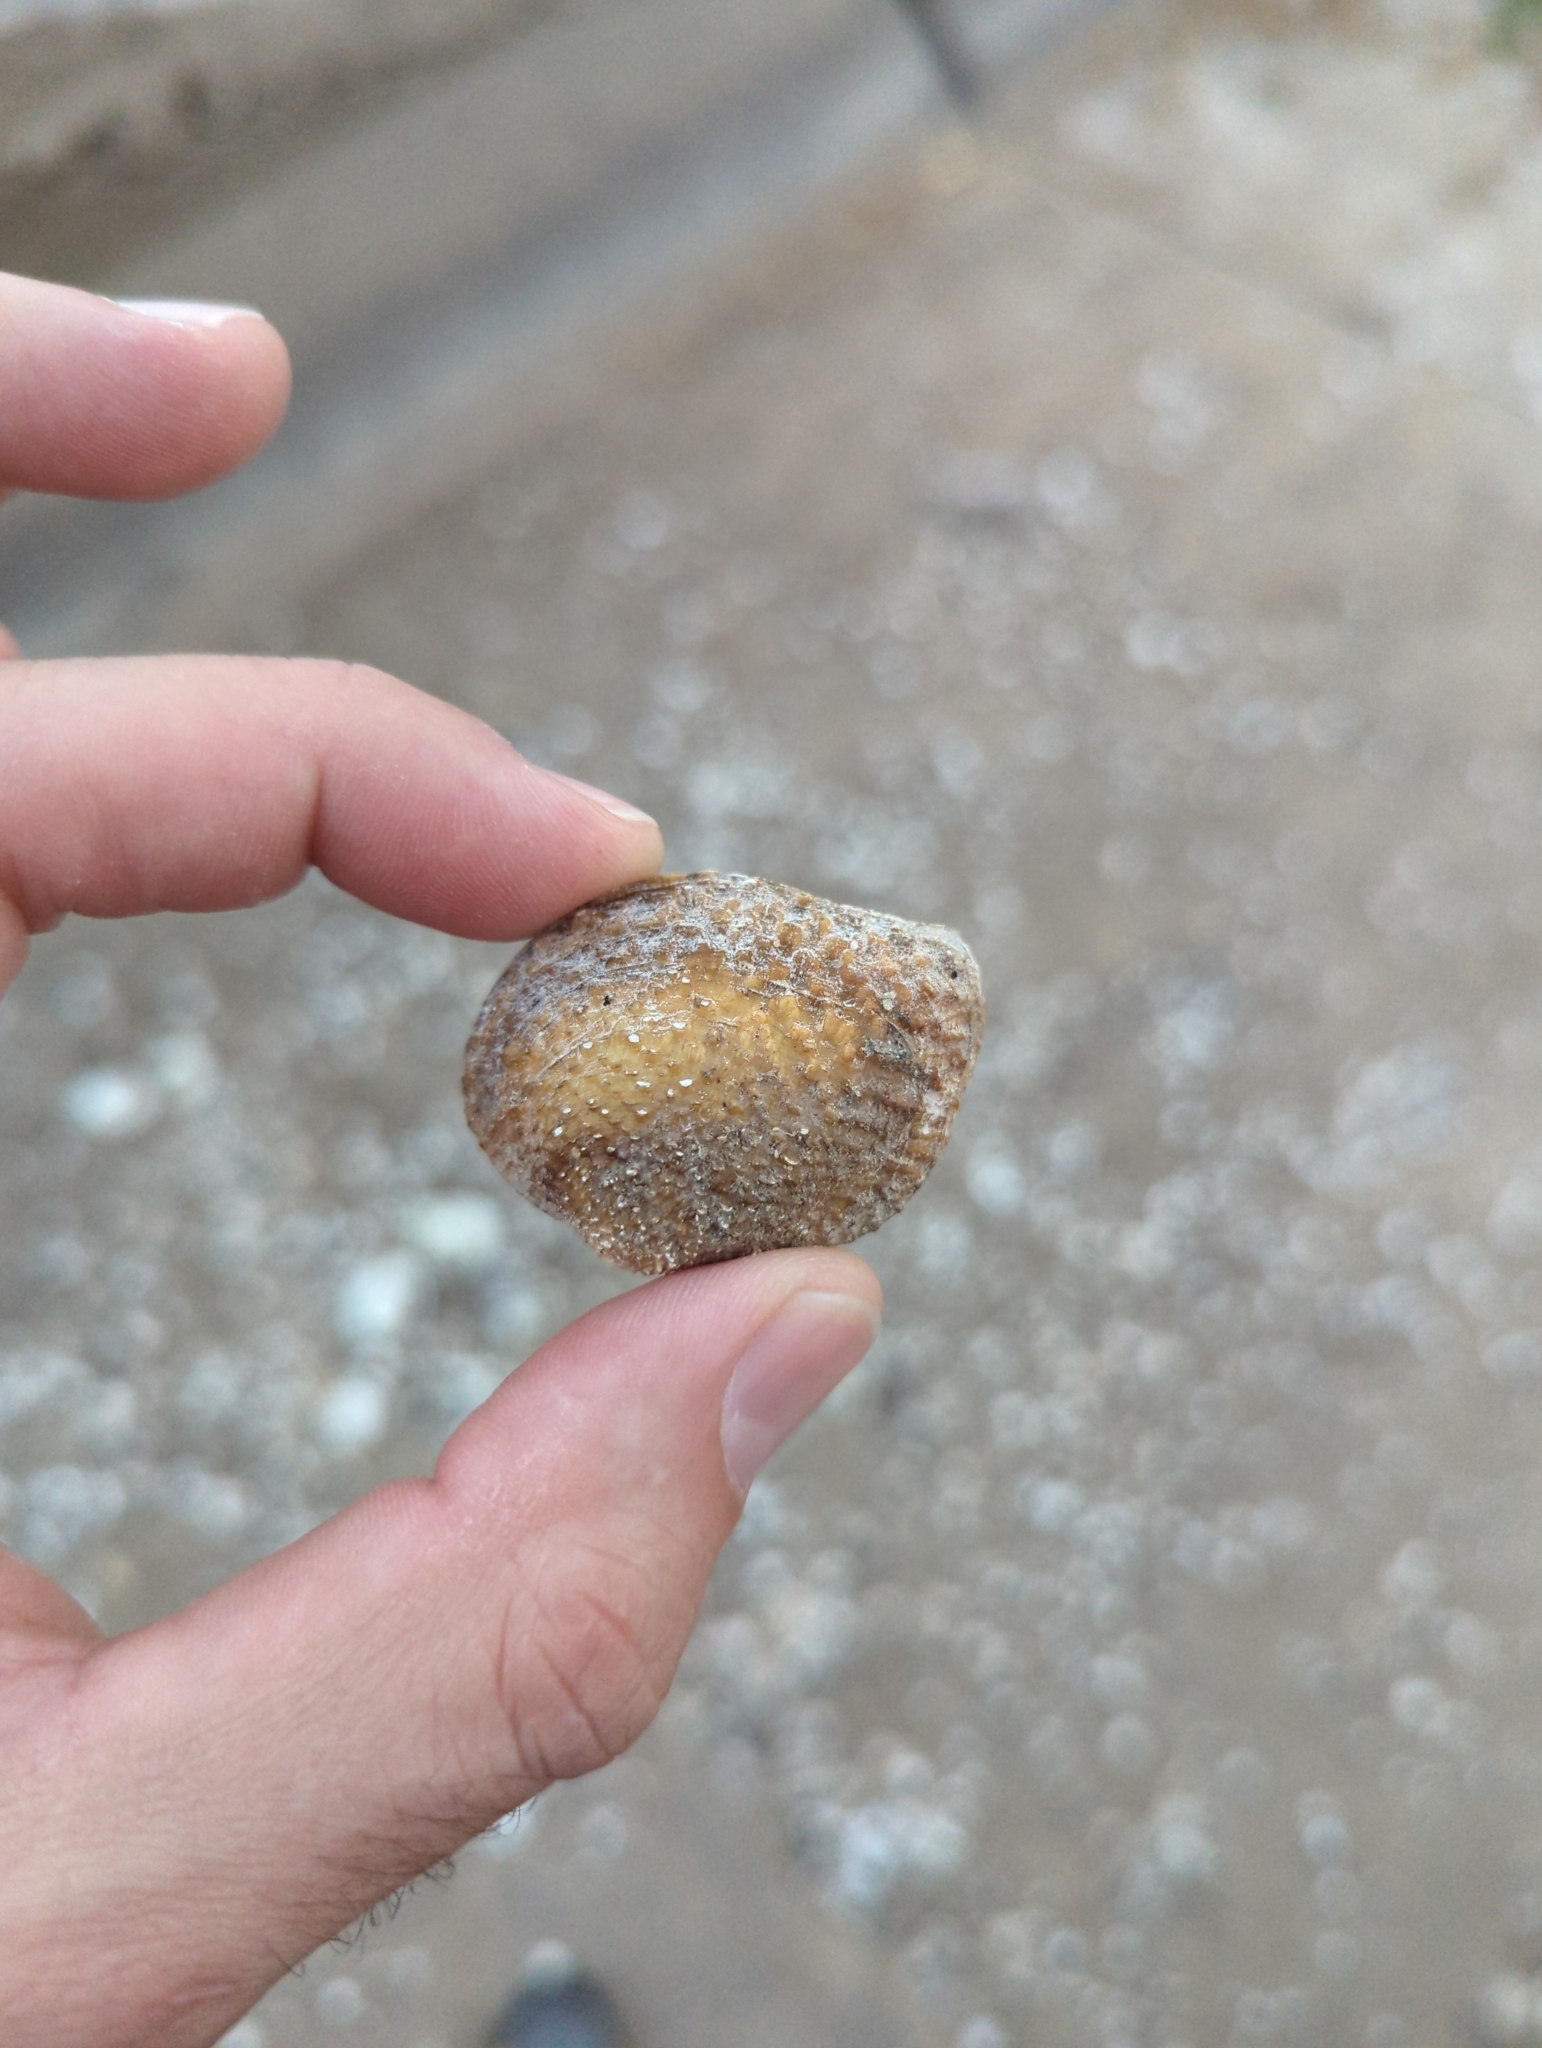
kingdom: Animalia
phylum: Mollusca
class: Bivalvia
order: Unionida
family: Unionidae
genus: Quadrula
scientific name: Quadrula quadrula
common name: Mapleleaf
